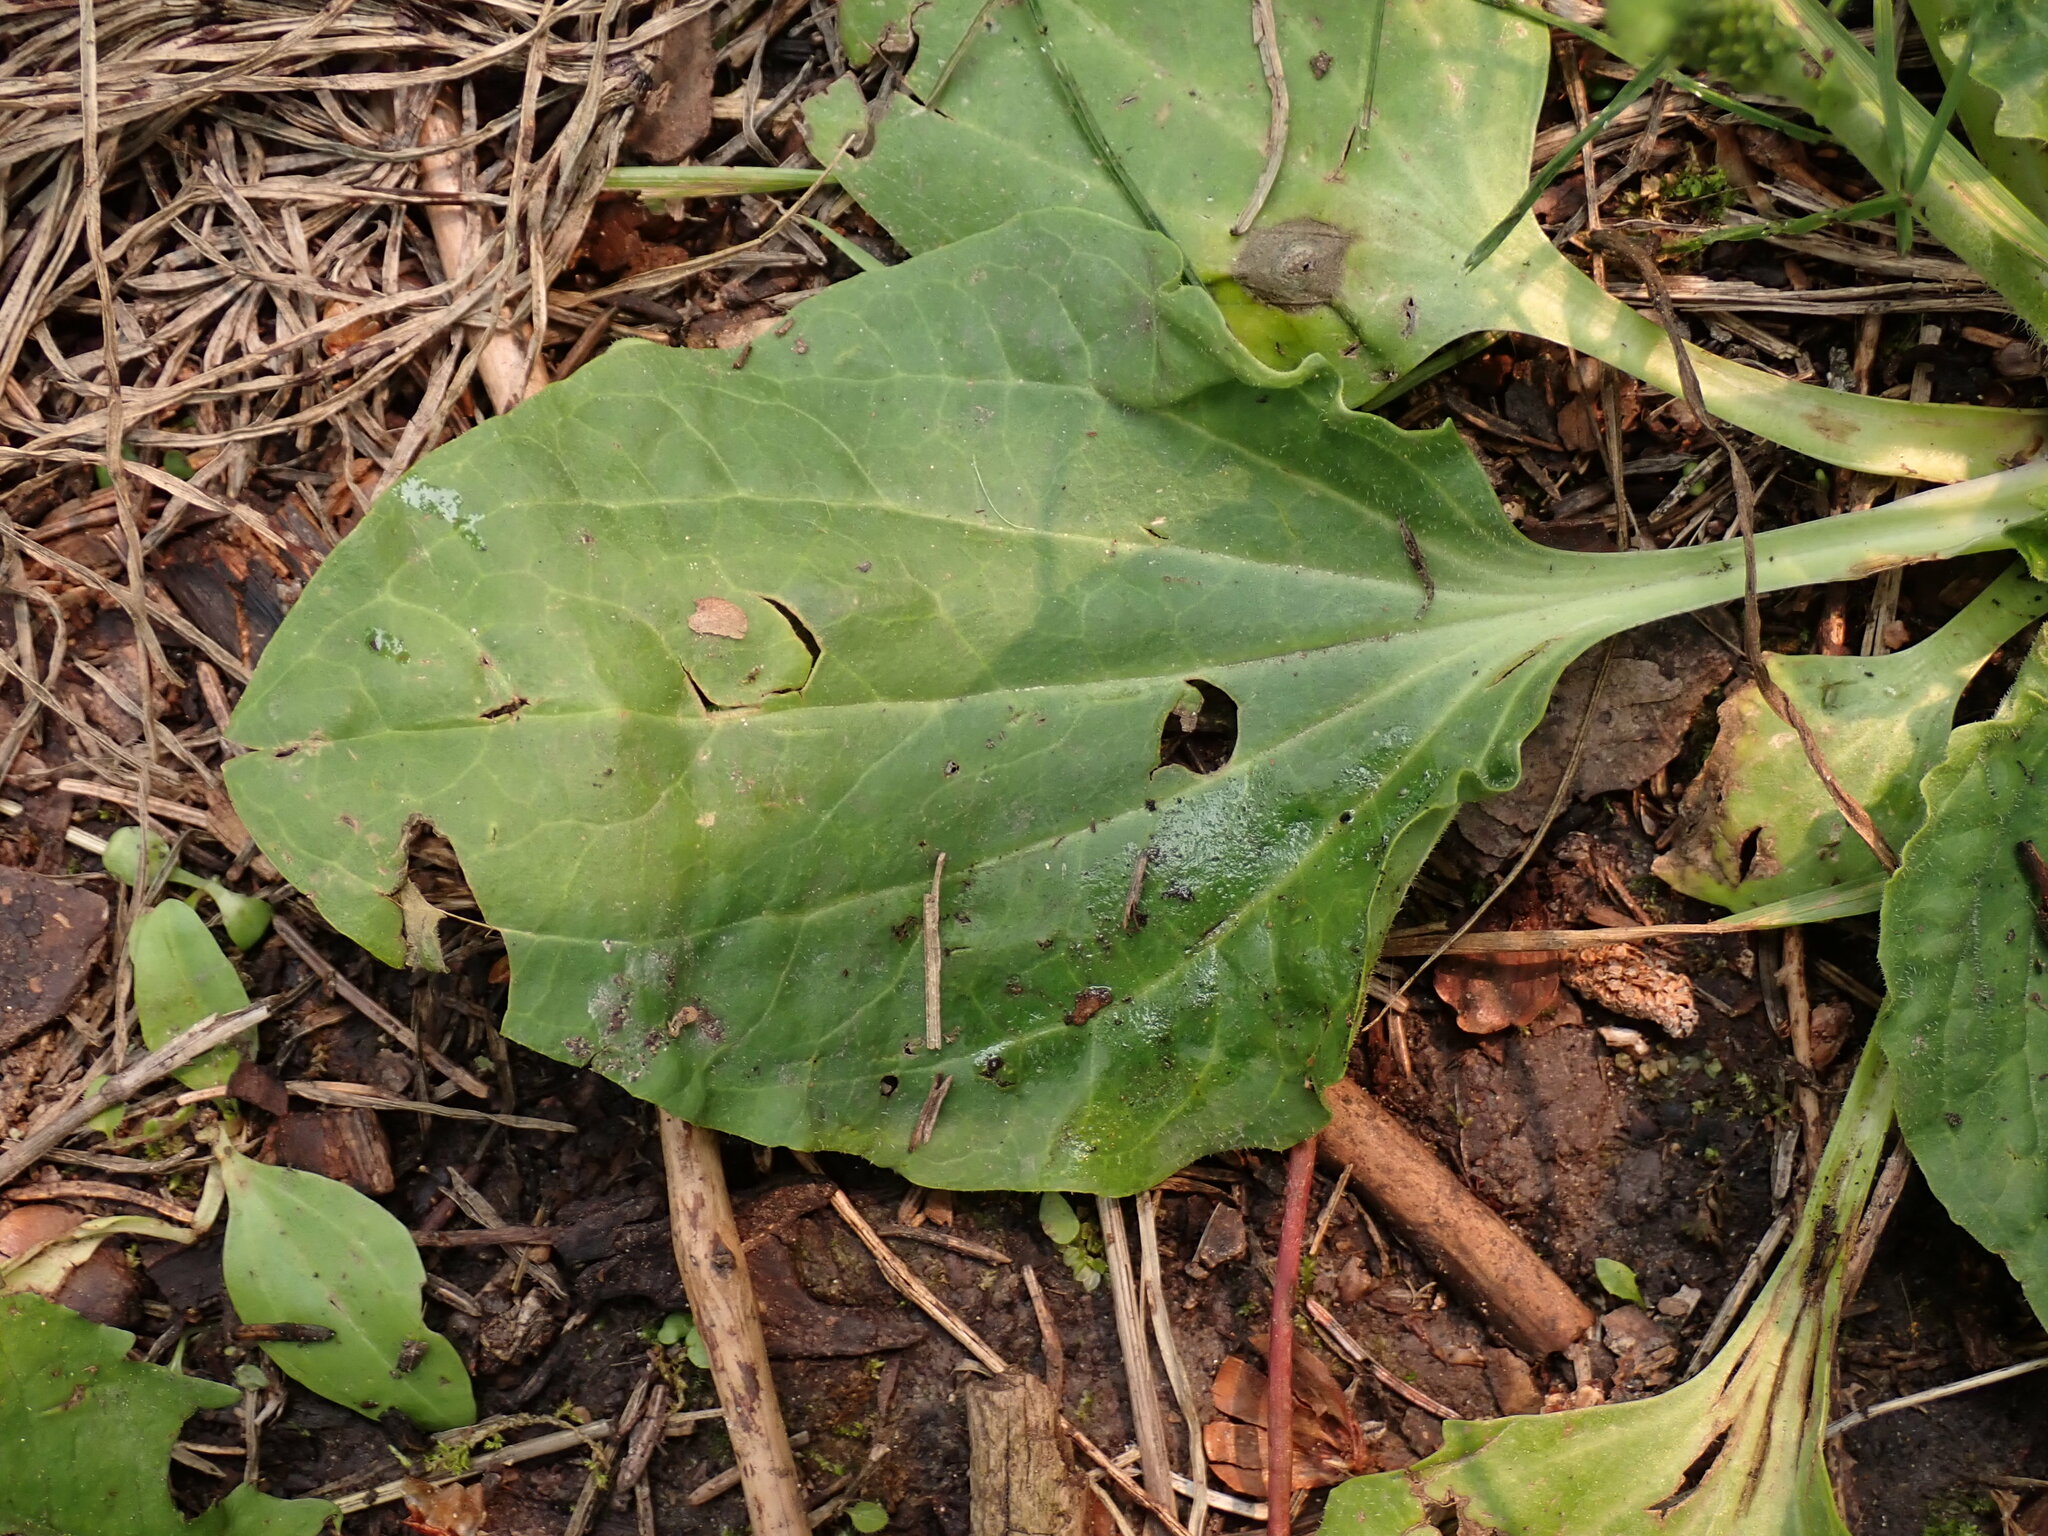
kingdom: Plantae
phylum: Tracheophyta
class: Magnoliopsida
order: Lamiales
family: Plantaginaceae
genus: Plantago
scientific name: Plantago major
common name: Common plantain
